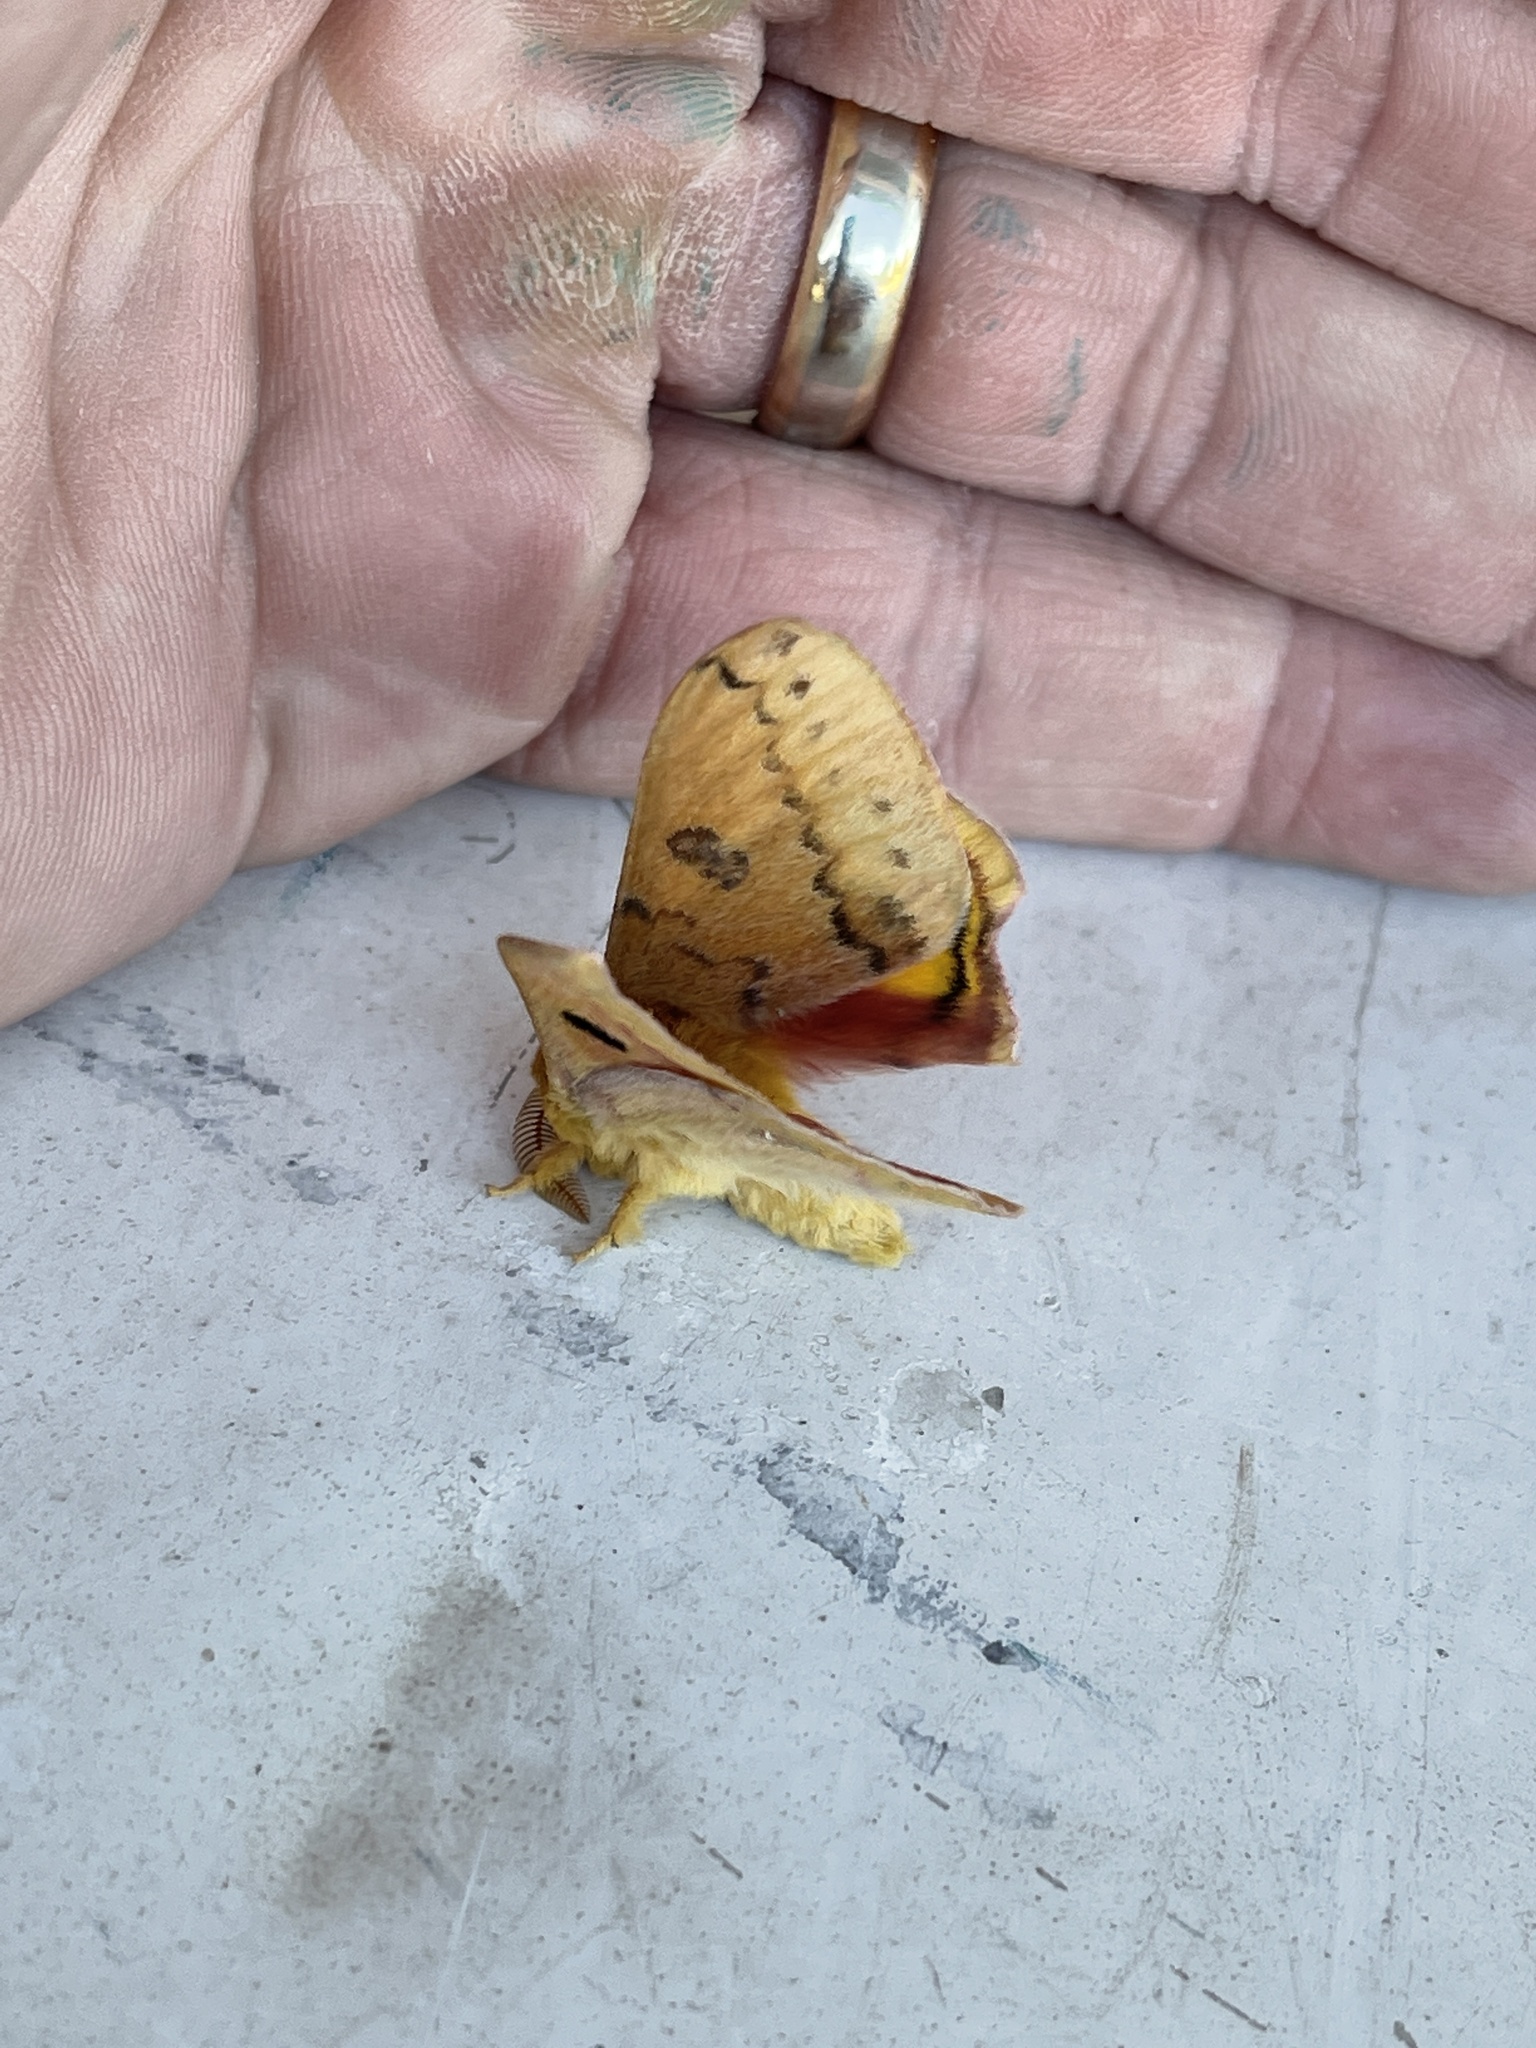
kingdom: Animalia
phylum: Arthropoda
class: Insecta
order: Lepidoptera
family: Saturniidae
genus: Automeris
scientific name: Automeris io
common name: Io moth
